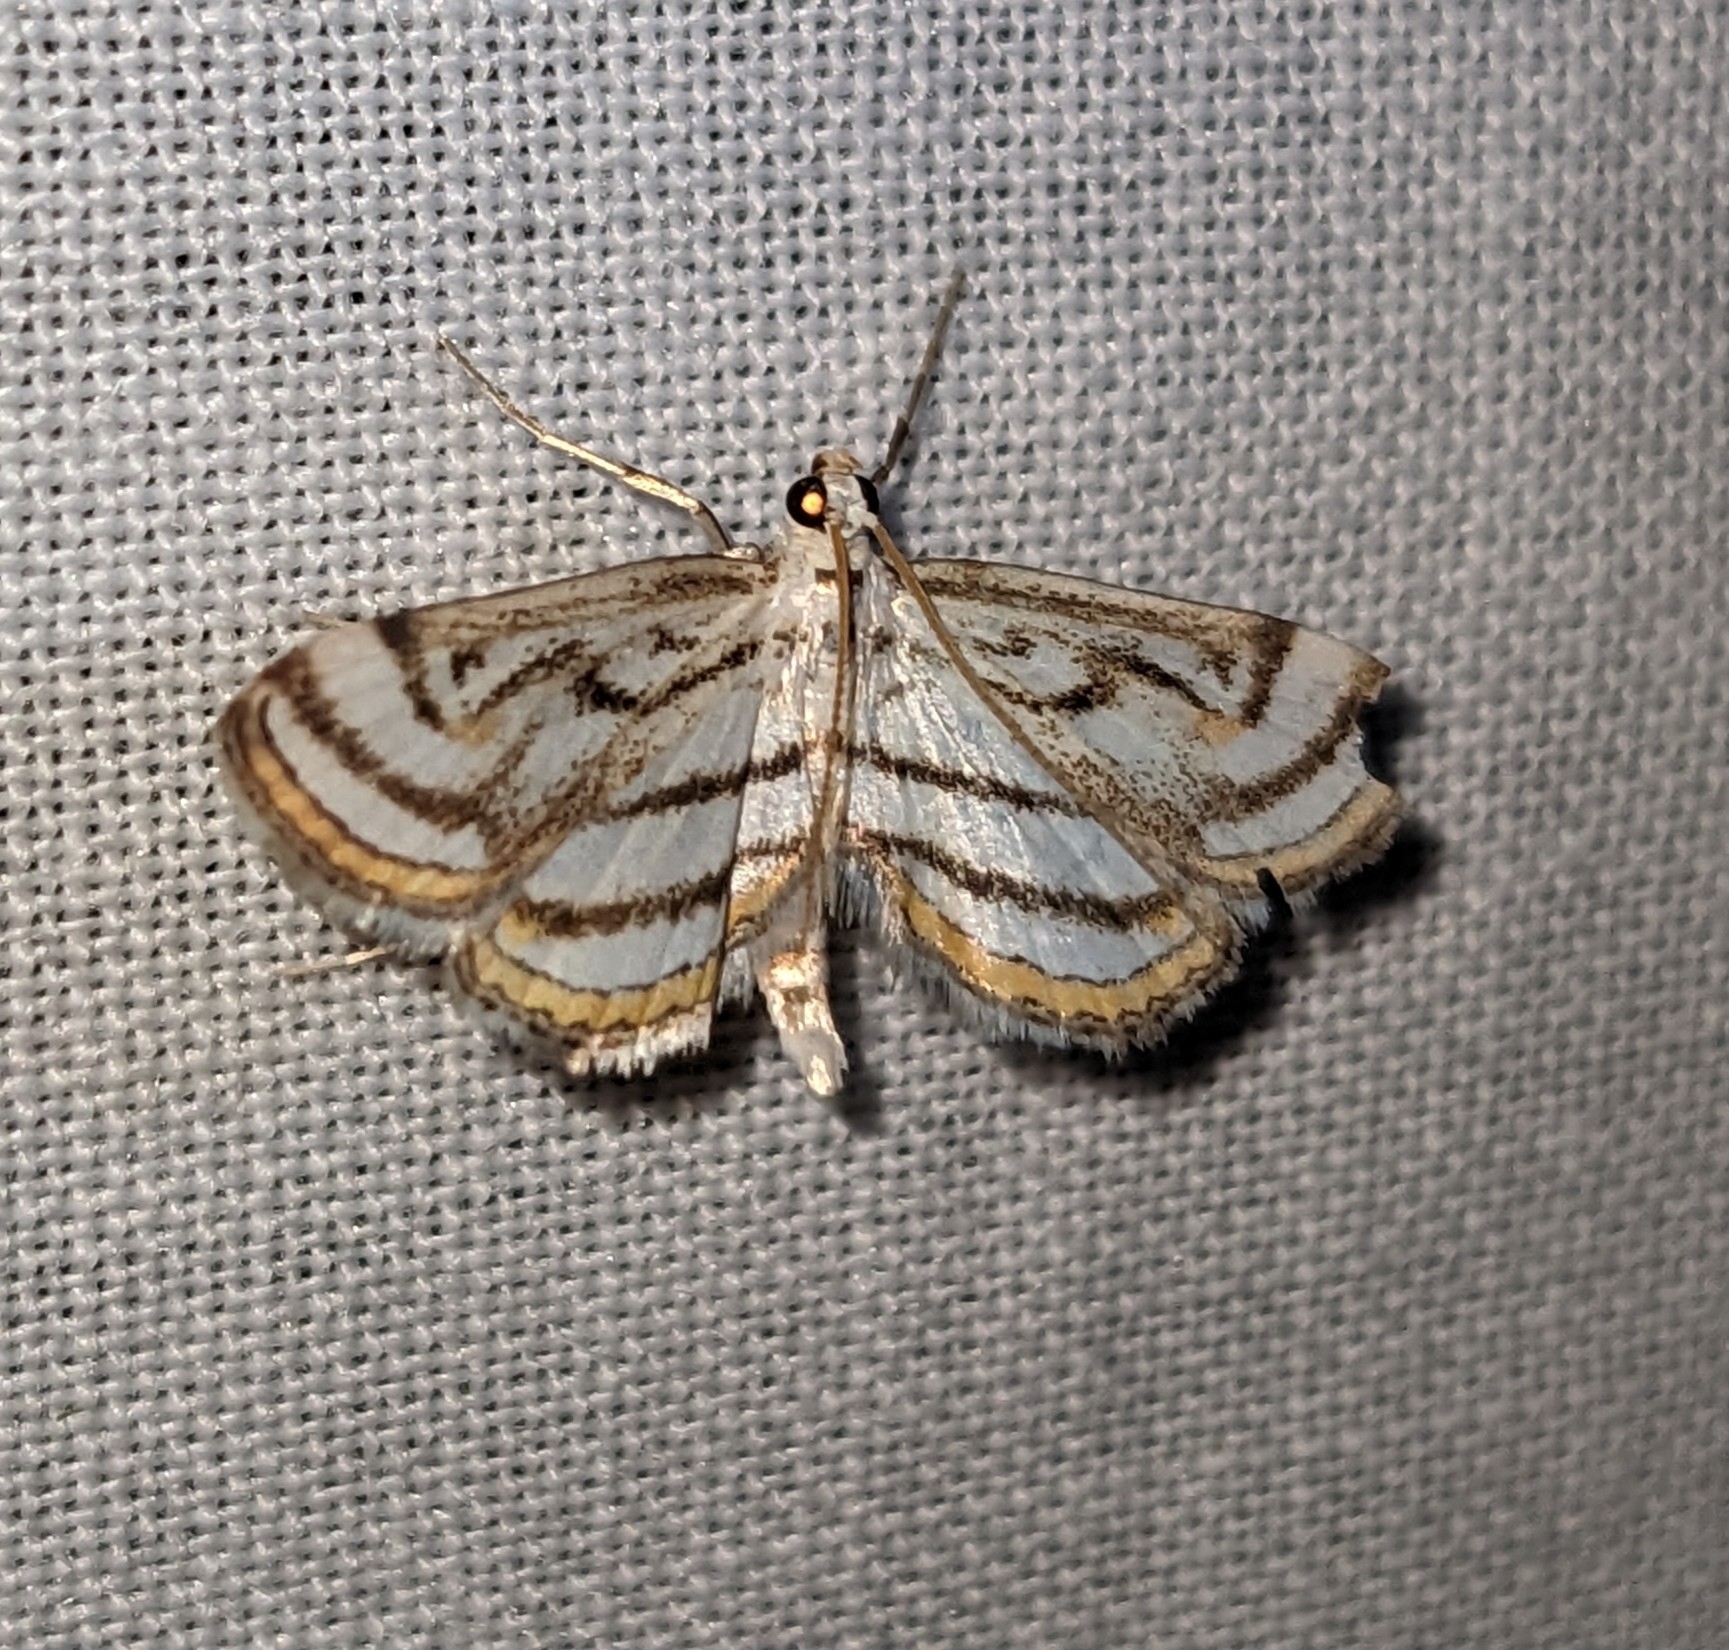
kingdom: Animalia
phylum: Arthropoda
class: Insecta
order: Lepidoptera
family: Crambidae
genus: Parapoynx
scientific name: Parapoynx badiusalis
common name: Chestnut-marked pondweed moth
